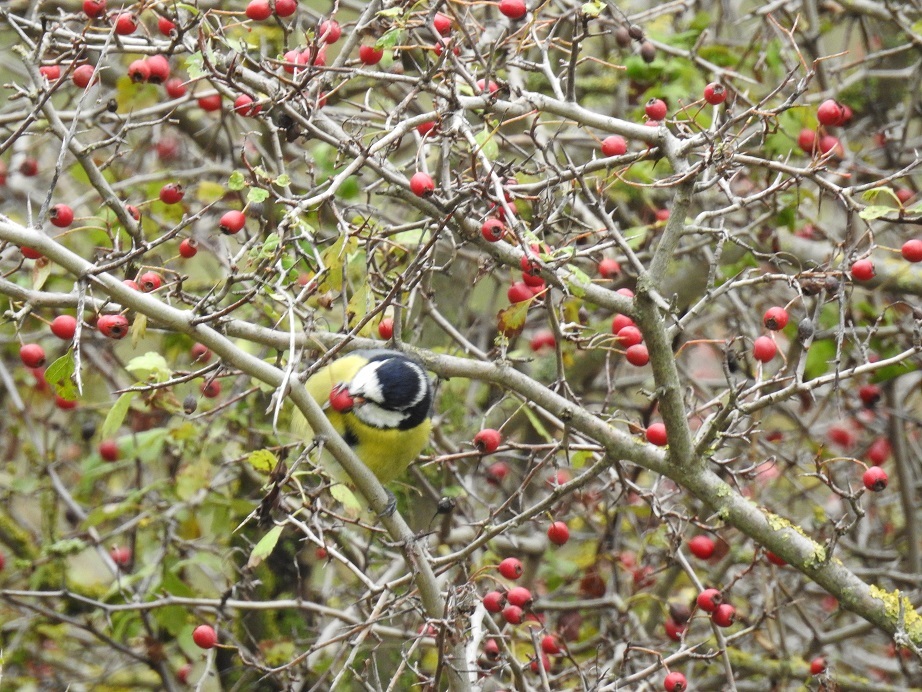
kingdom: Animalia
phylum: Chordata
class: Aves
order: Passeriformes
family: Paridae
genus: Cyanistes
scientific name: Cyanistes teneriffae
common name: African blue tit
